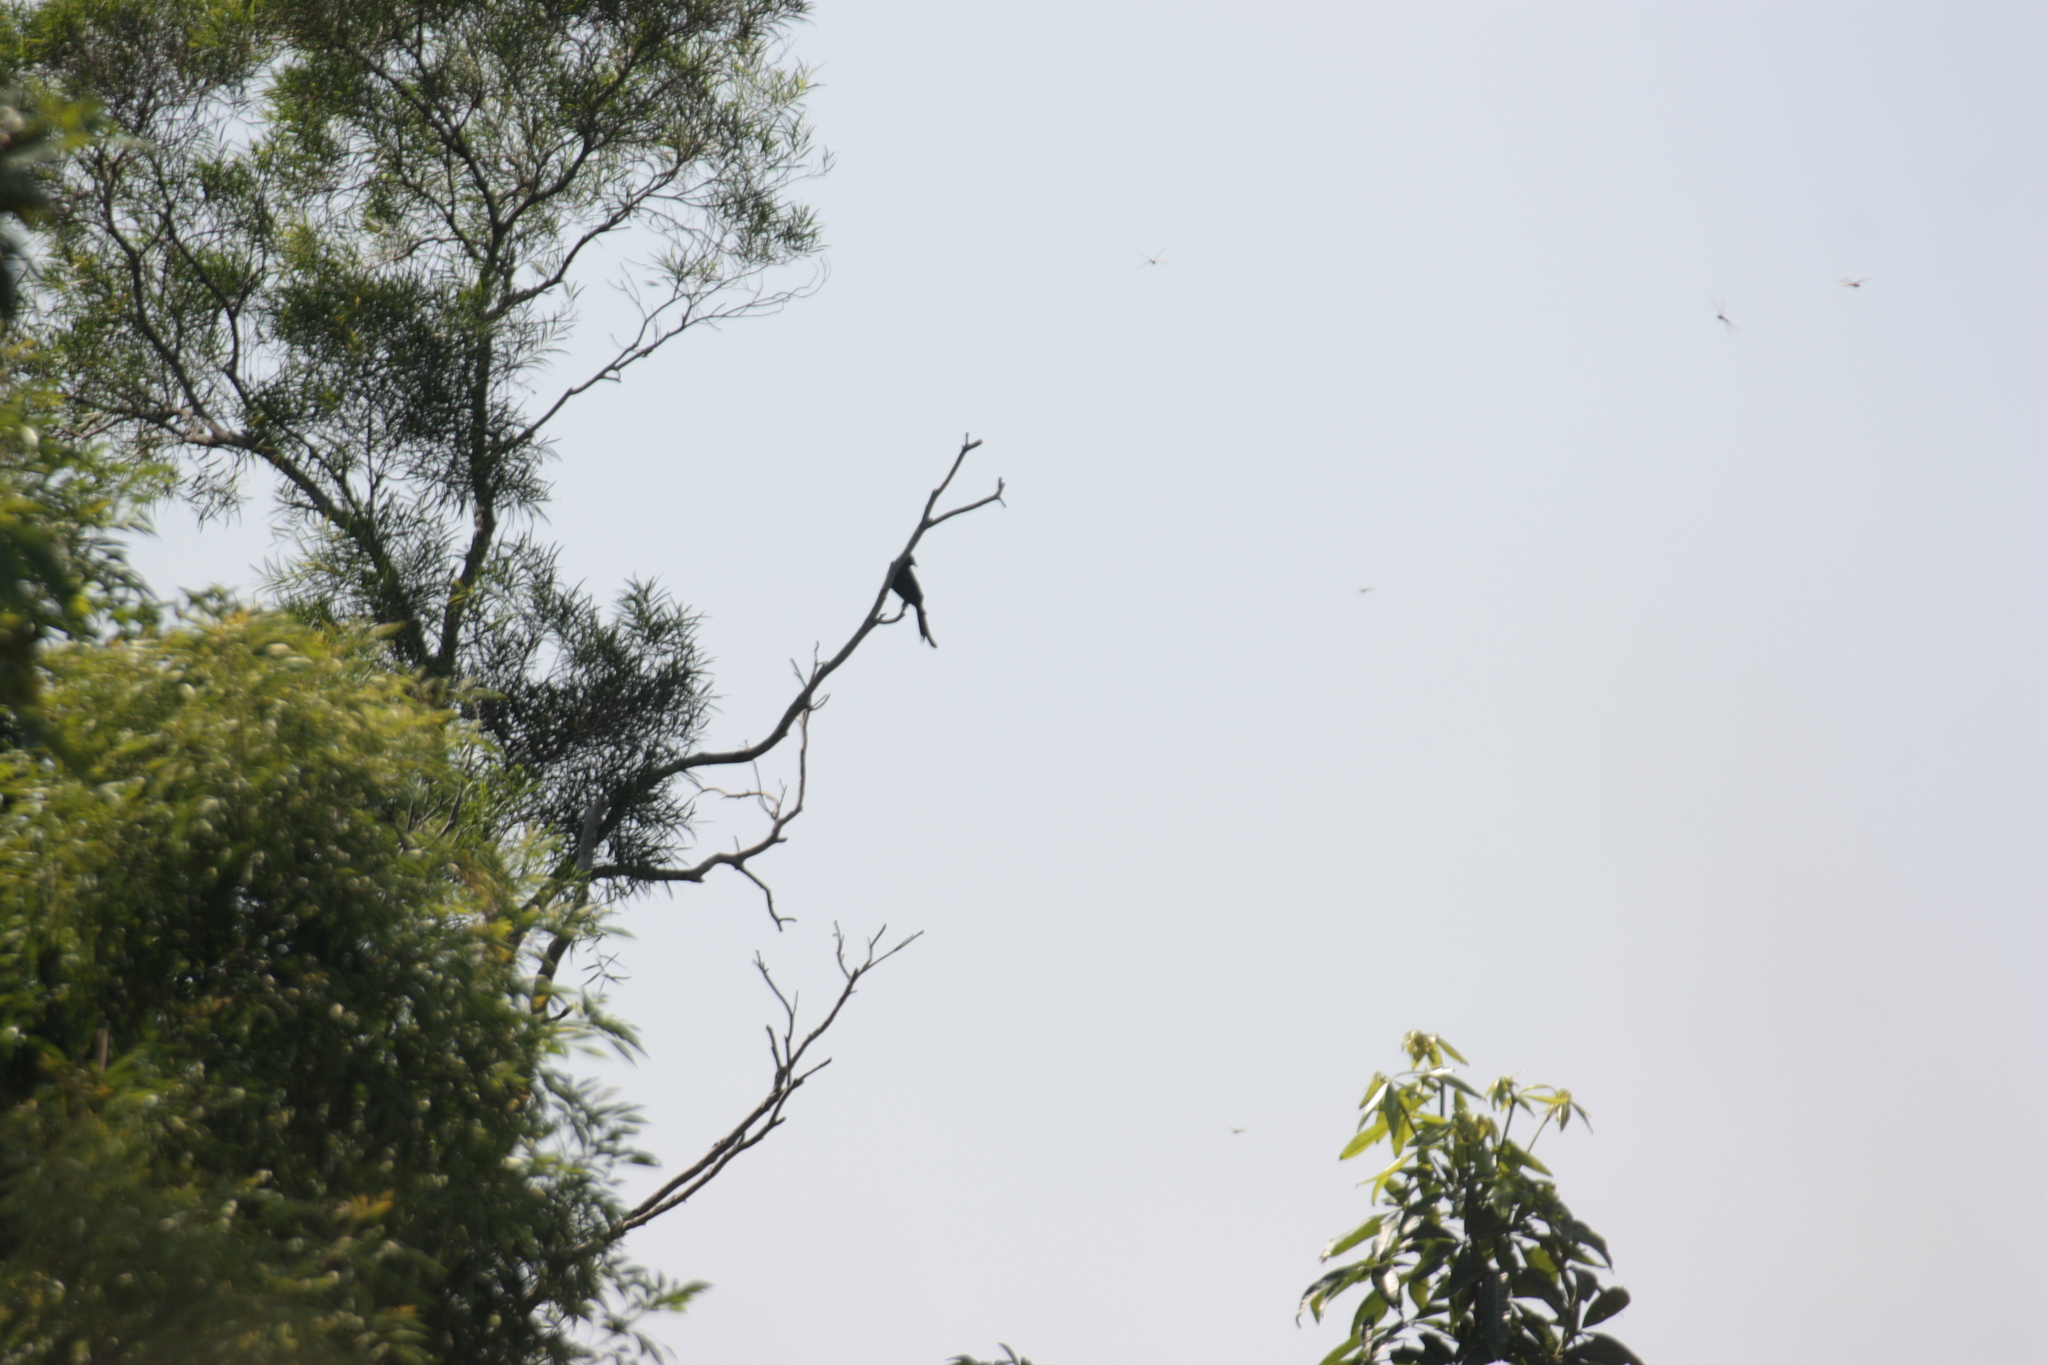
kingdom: Animalia
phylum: Chordata
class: Aves
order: Passeriformes
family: Dicruridae
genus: Dicrurus
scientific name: Dicrurus macrocercus
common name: Black drongo
